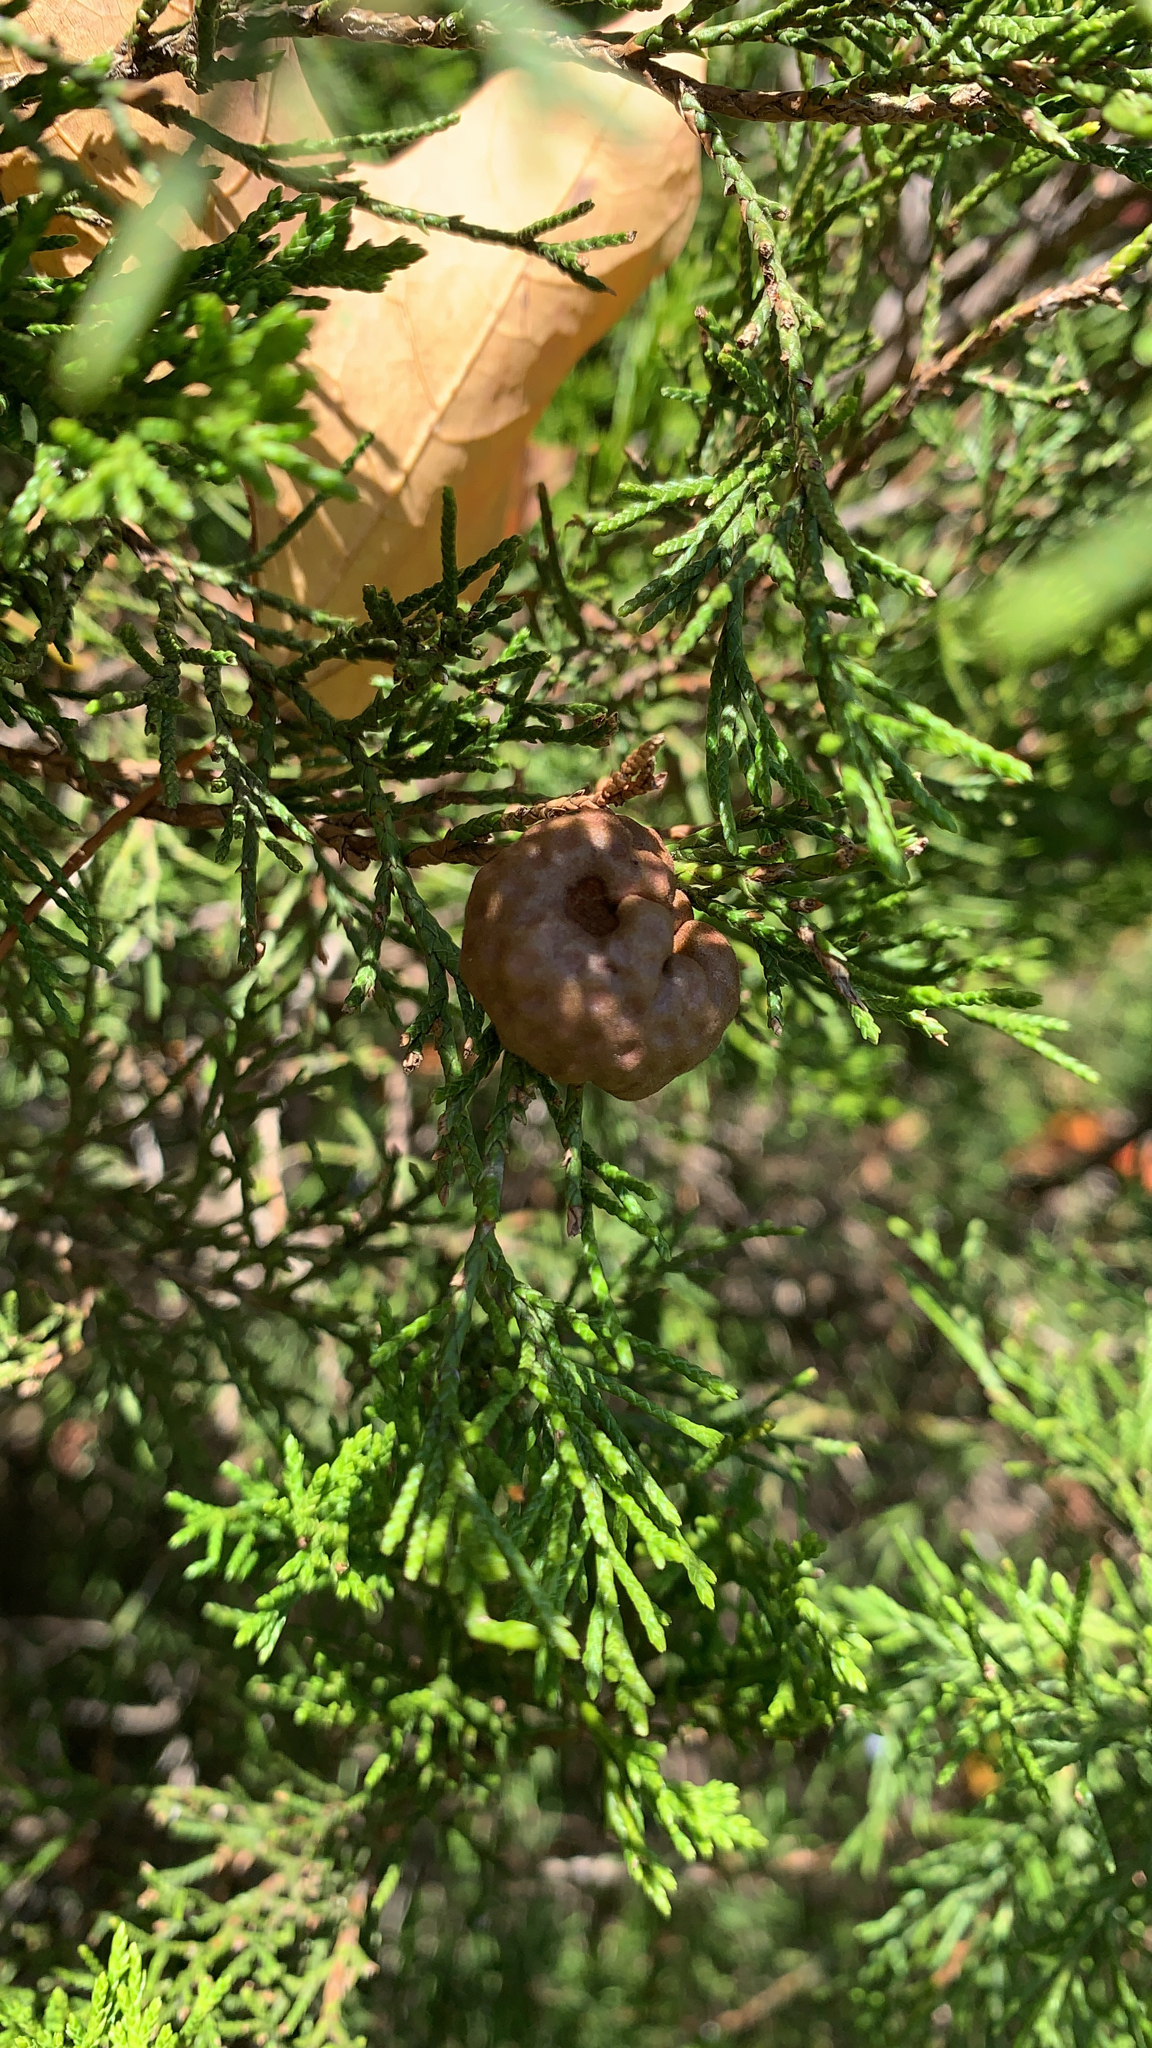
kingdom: Fungi
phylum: Basidiomycota
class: Pucciniomycetes
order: Pucciniales
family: Gymnosporangiaceae
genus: Gymnosporangium
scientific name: Gymnosporangium juniperi-virginianae
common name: Juniper-apple rust
